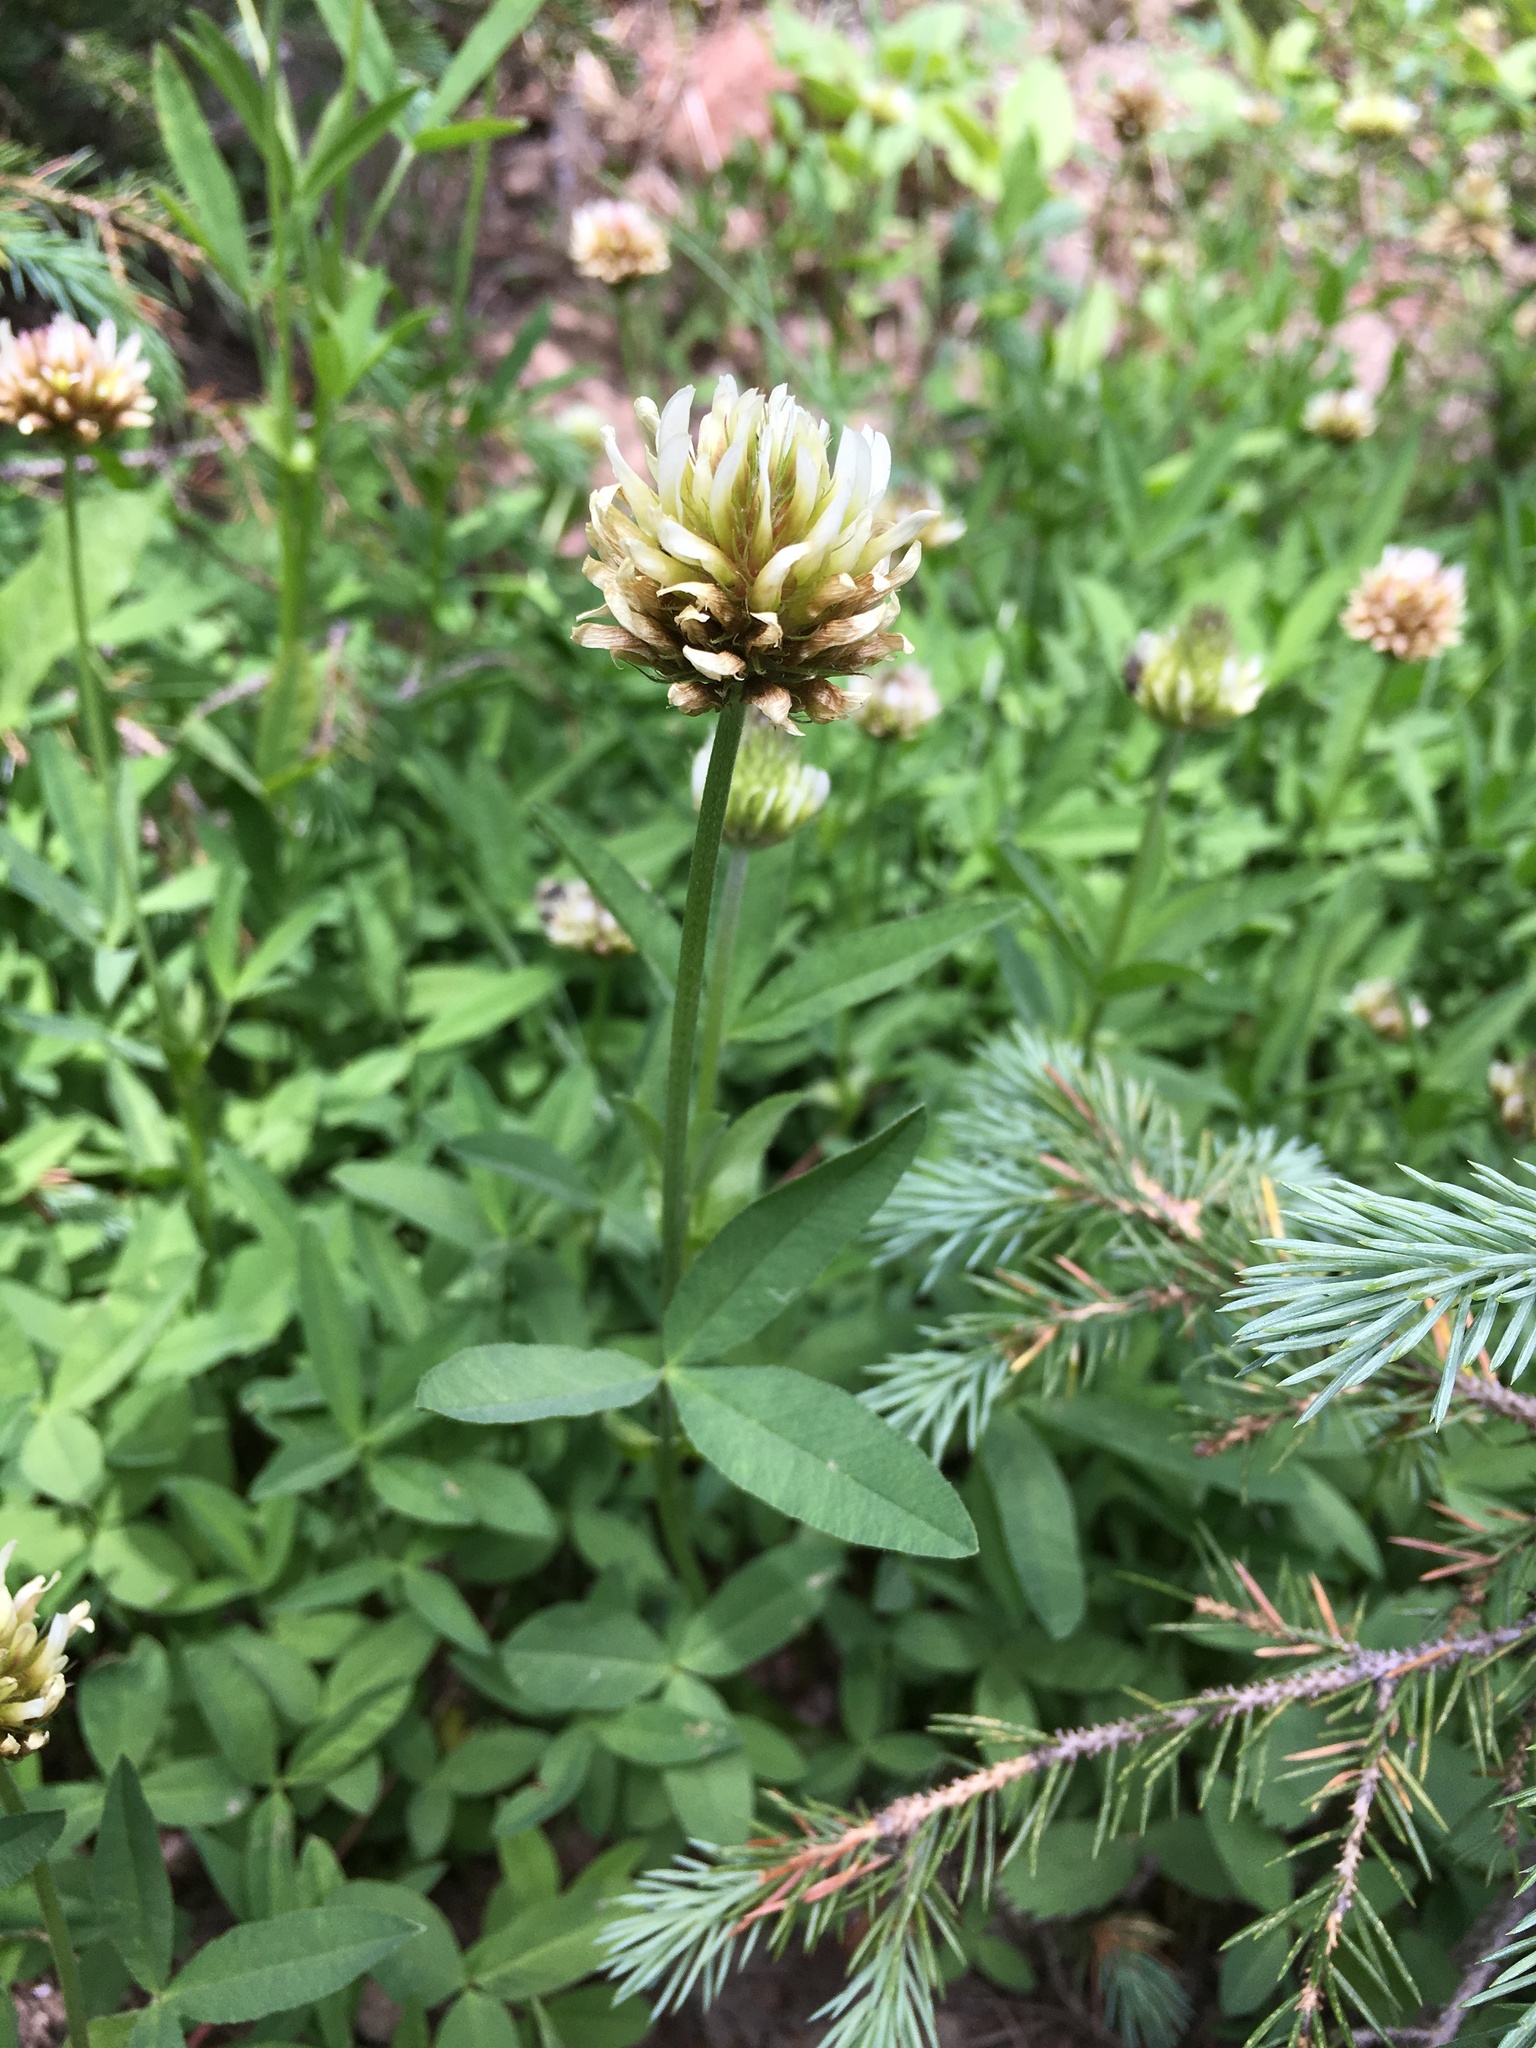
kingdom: Plantae
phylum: Tracheophyta
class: Magnoliopsida
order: Fabales
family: Fabaceae
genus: Trifolium
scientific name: Trifolium longipes
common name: Long-stalk clover
